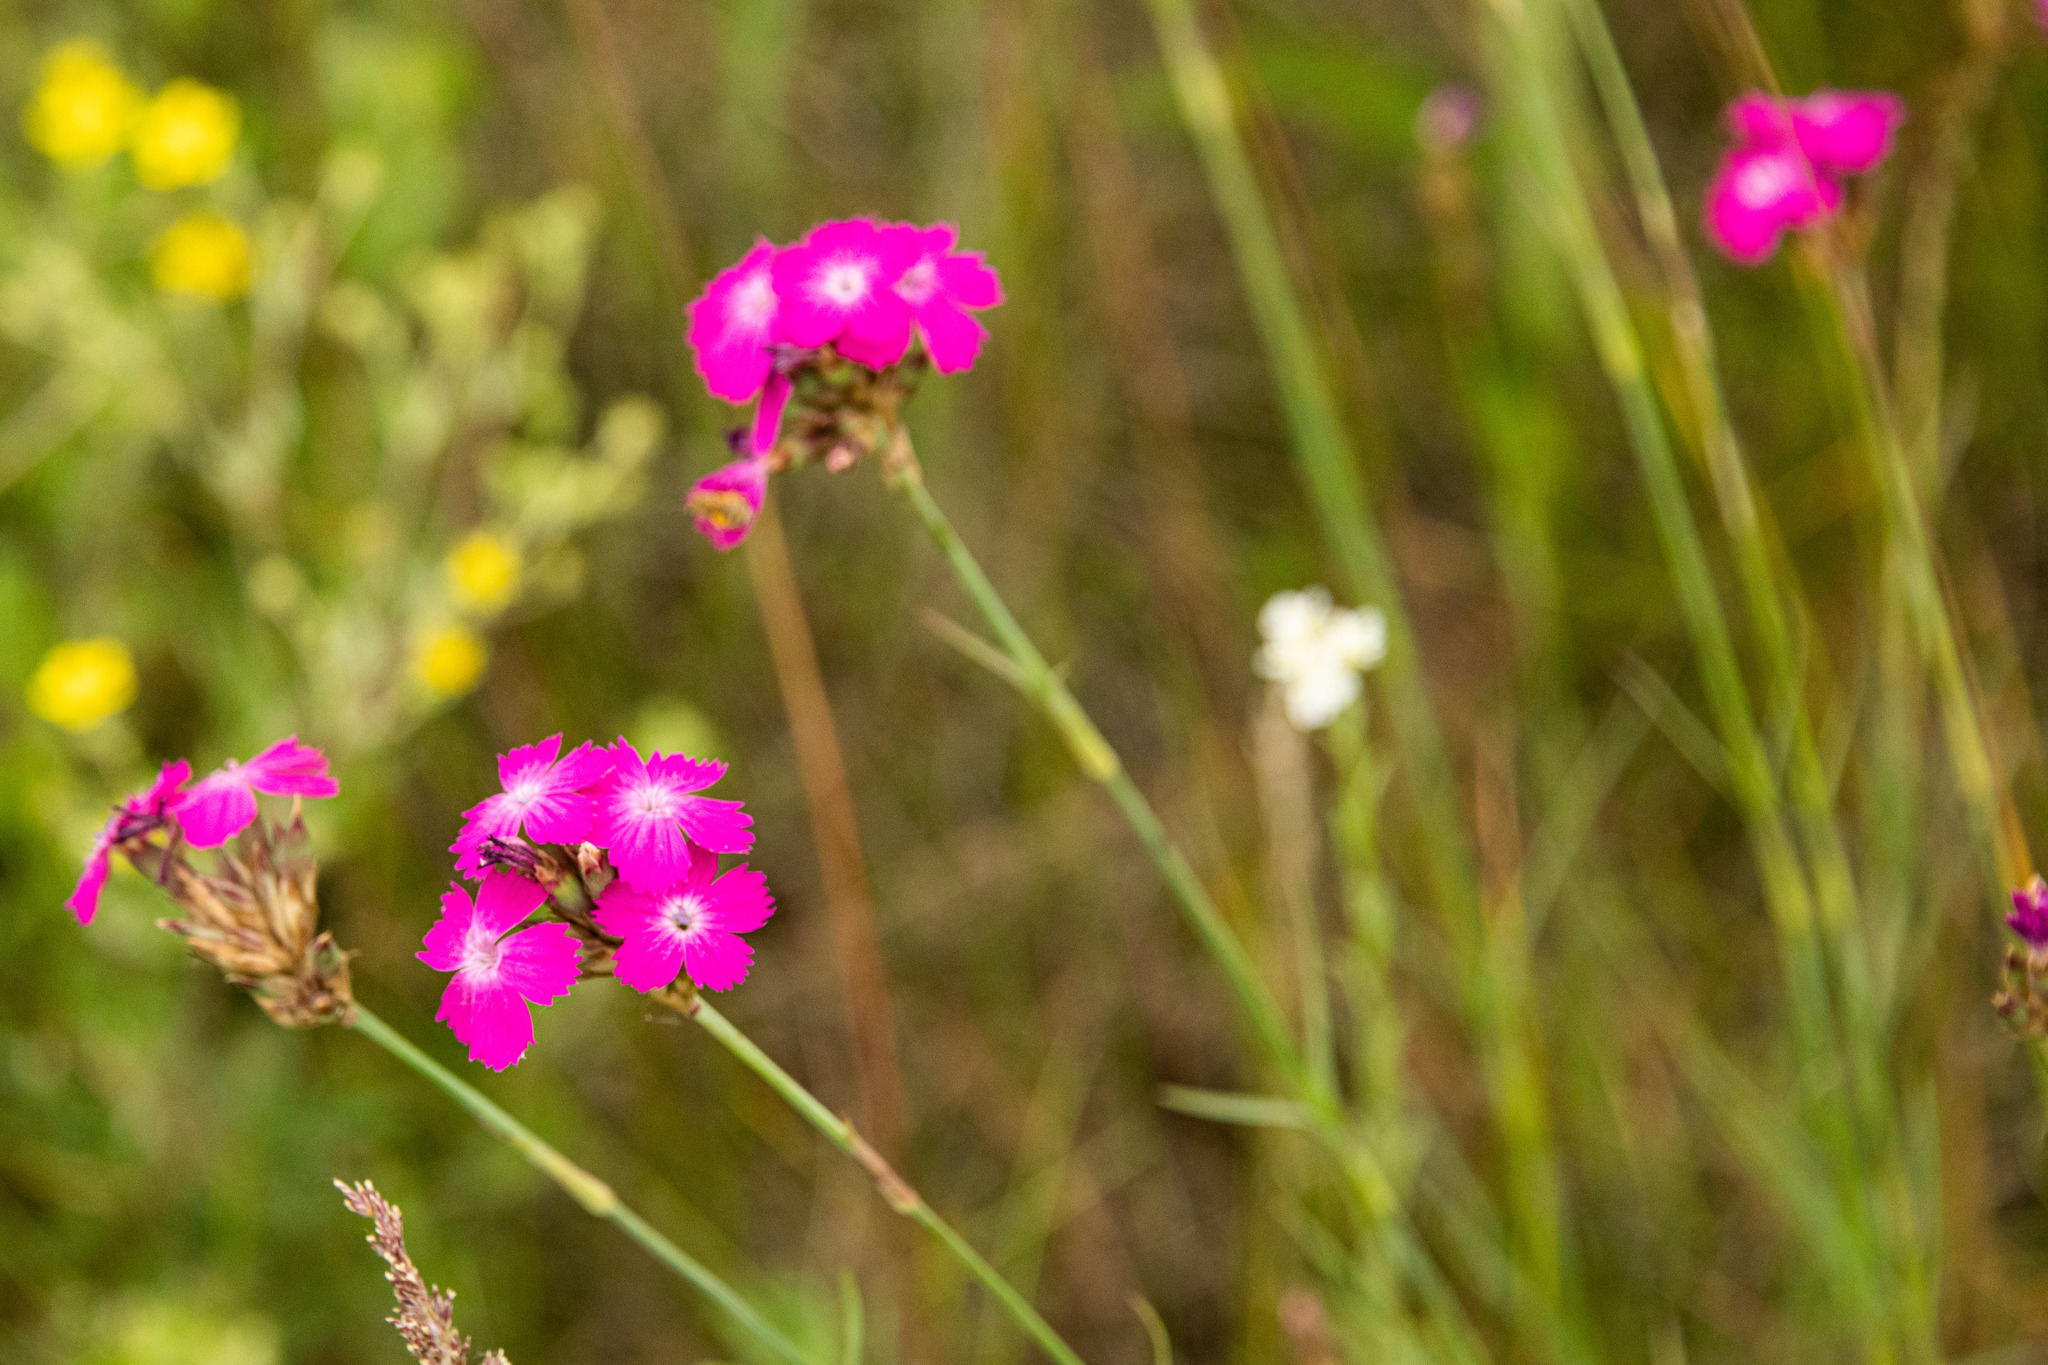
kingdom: Plantae
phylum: Tracheophyta
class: Magnoliopsida
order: Caryophyllales
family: Caryophyllaceae
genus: Dianthus
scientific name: Dianthus borbasii
